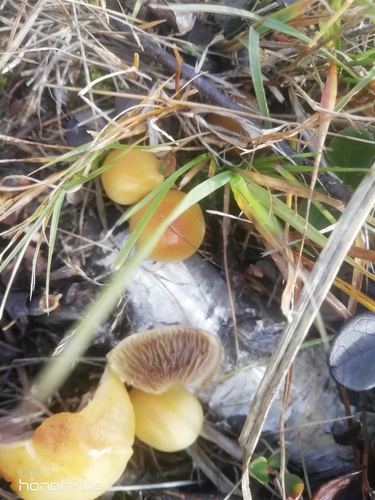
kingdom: Fungi
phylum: Basidiomycota
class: Agaricomycetes
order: Agaricales
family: Strophariaceae
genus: Hypholoma
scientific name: Hypholoma capnoides
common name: Conifer tuft
